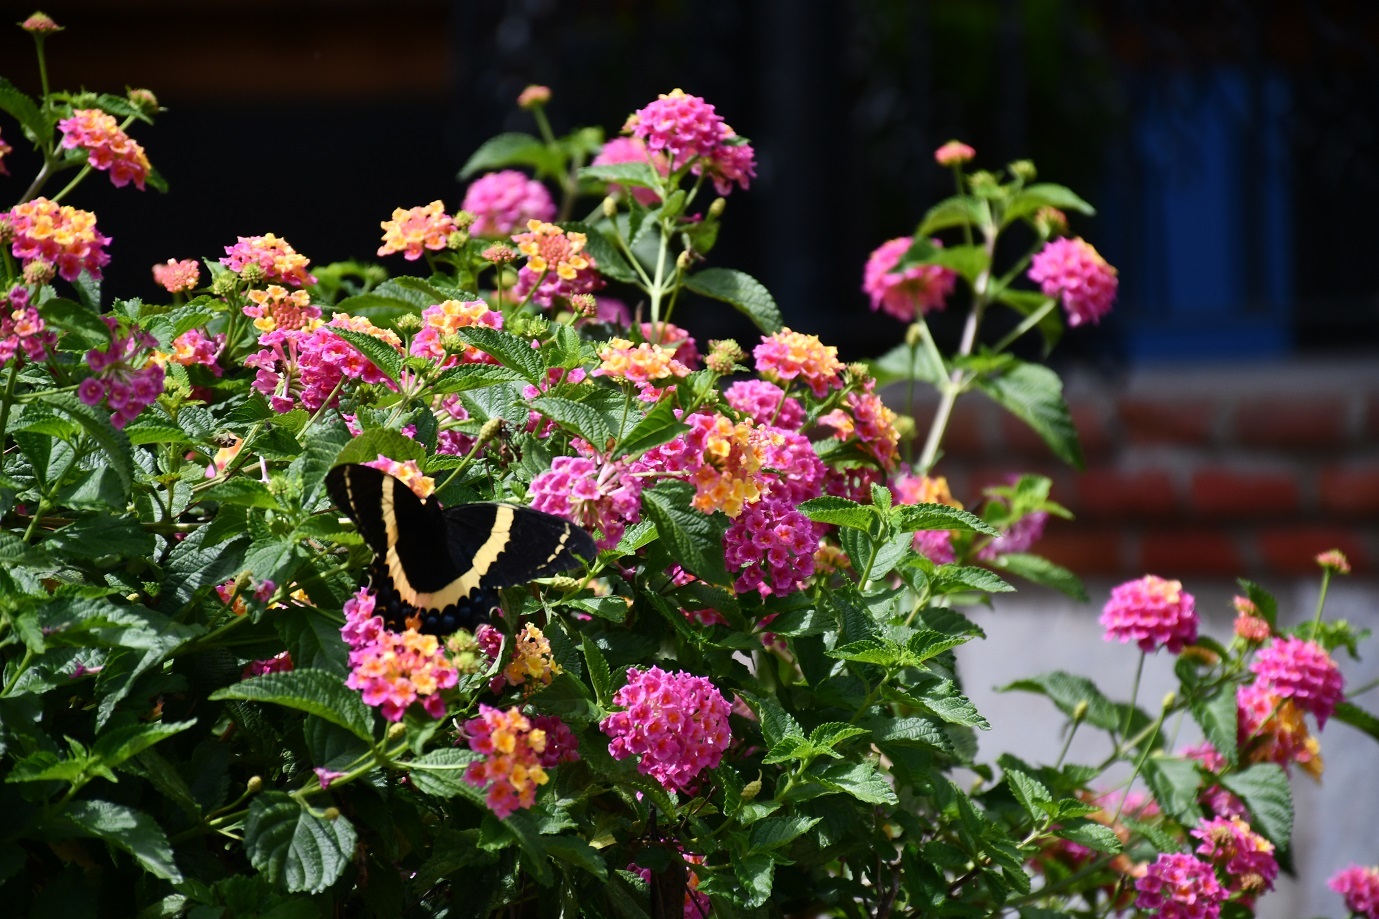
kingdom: Plantae
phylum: Tracheophyta
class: Magnoliopsida
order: Lamiales
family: Verbenaceae
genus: Lantana
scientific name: Lantana camara
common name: Lantana
